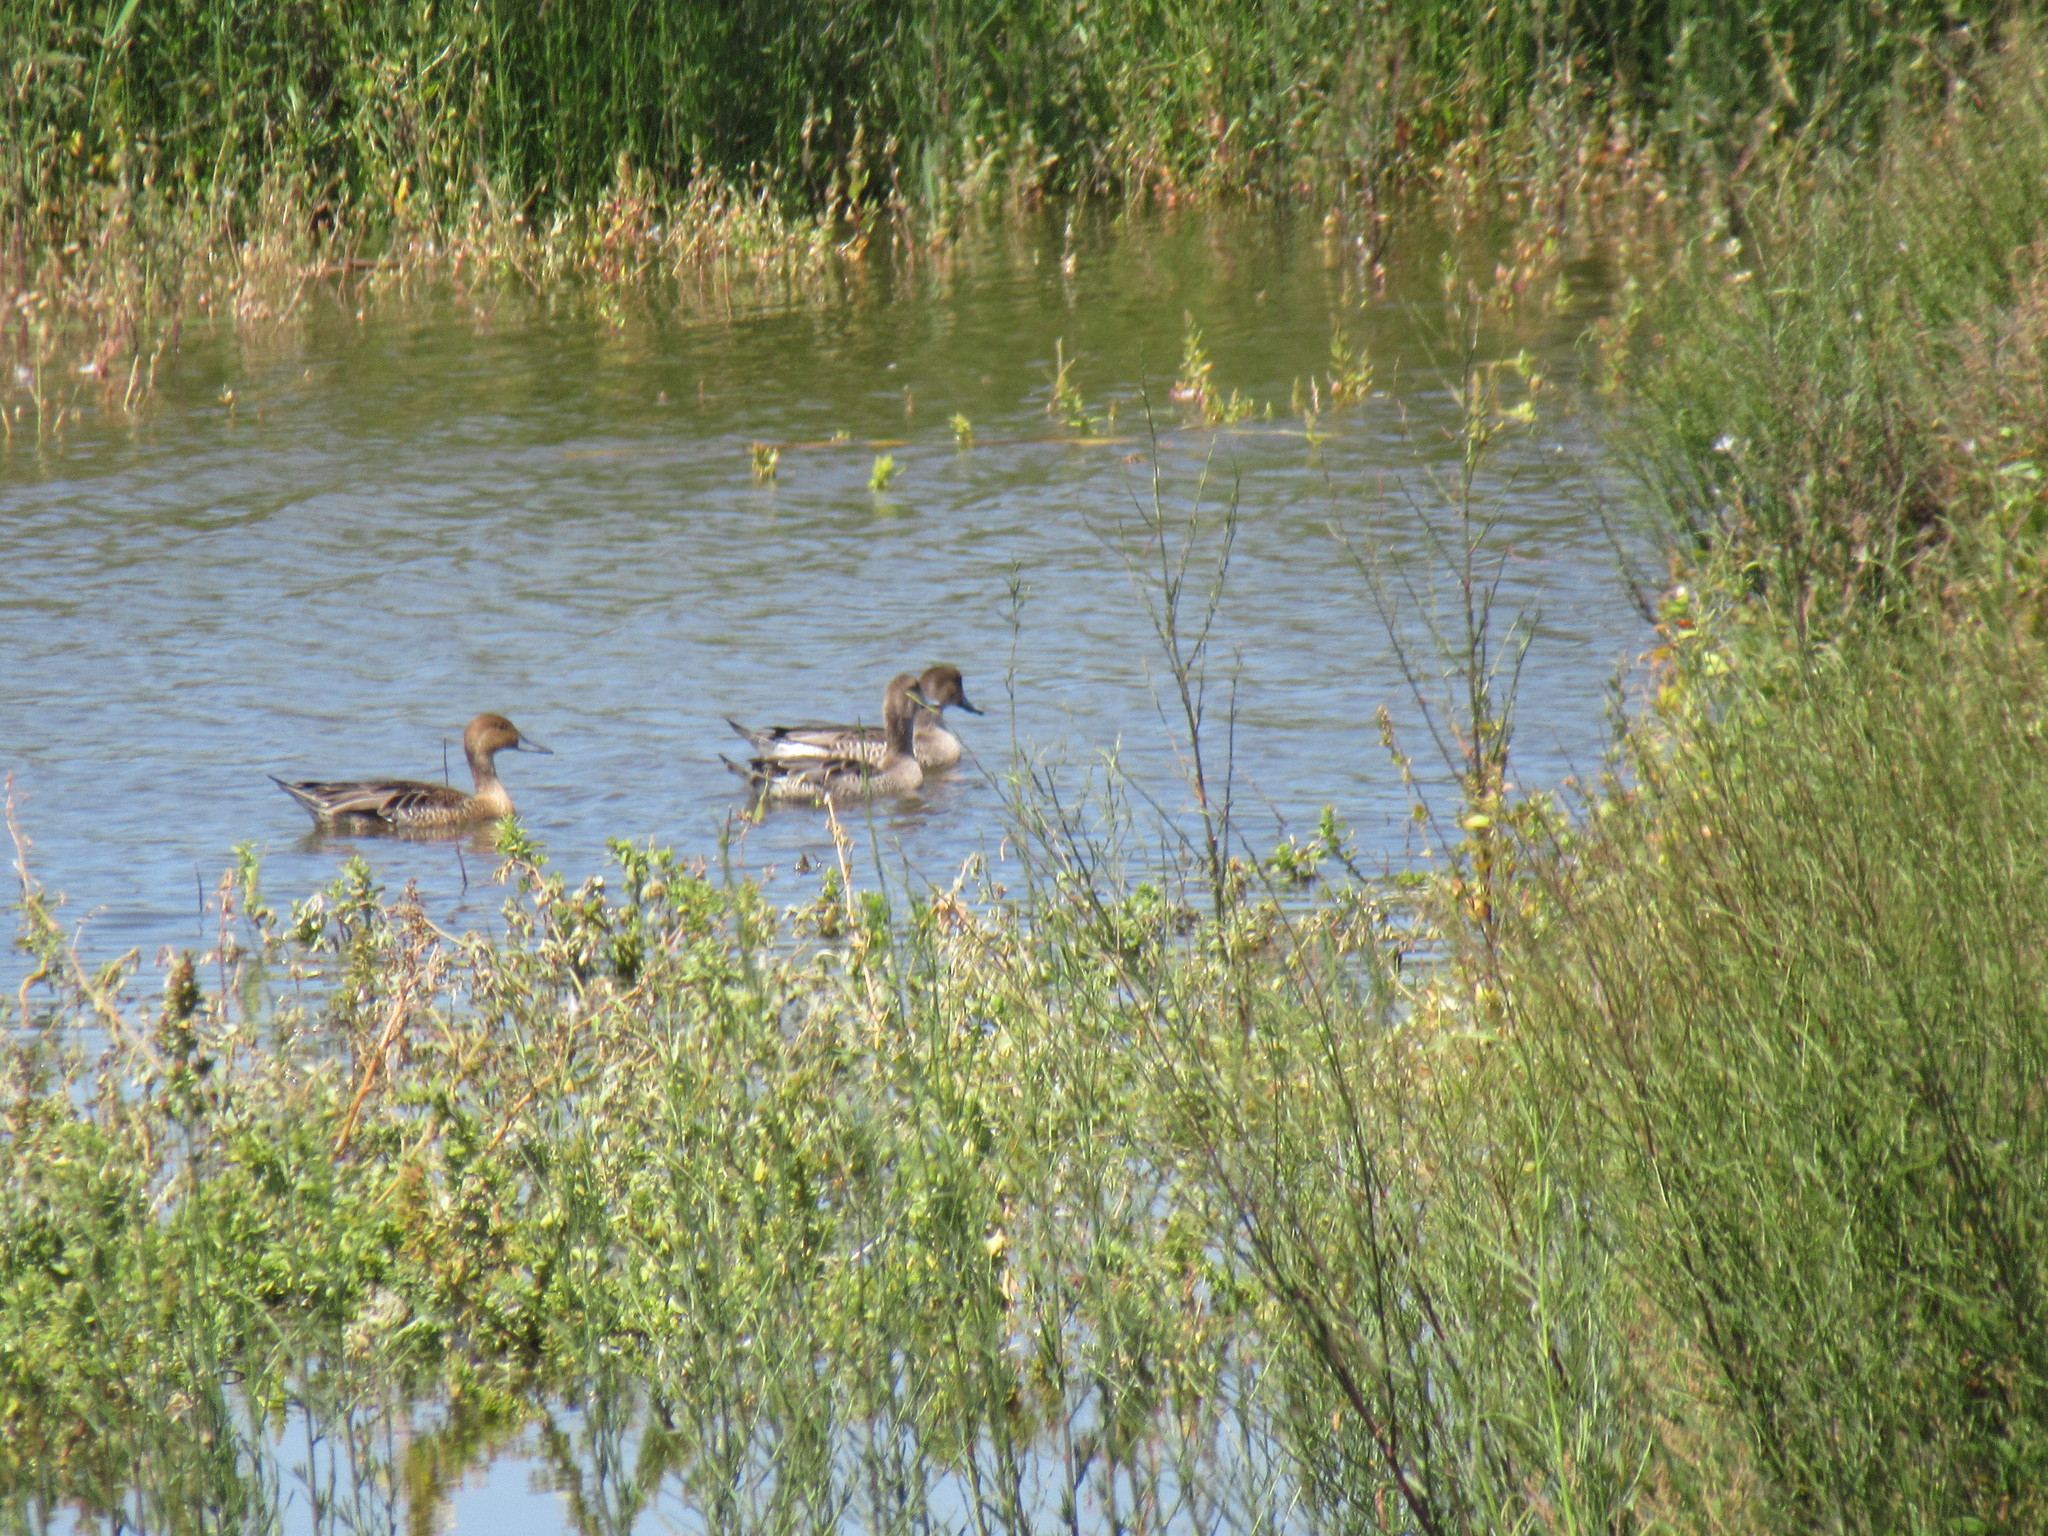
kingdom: Animalia
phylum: Chordata
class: Aves
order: Anseriformes
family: Anatidae
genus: Anas
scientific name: Anas acuta
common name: Northern pintail
